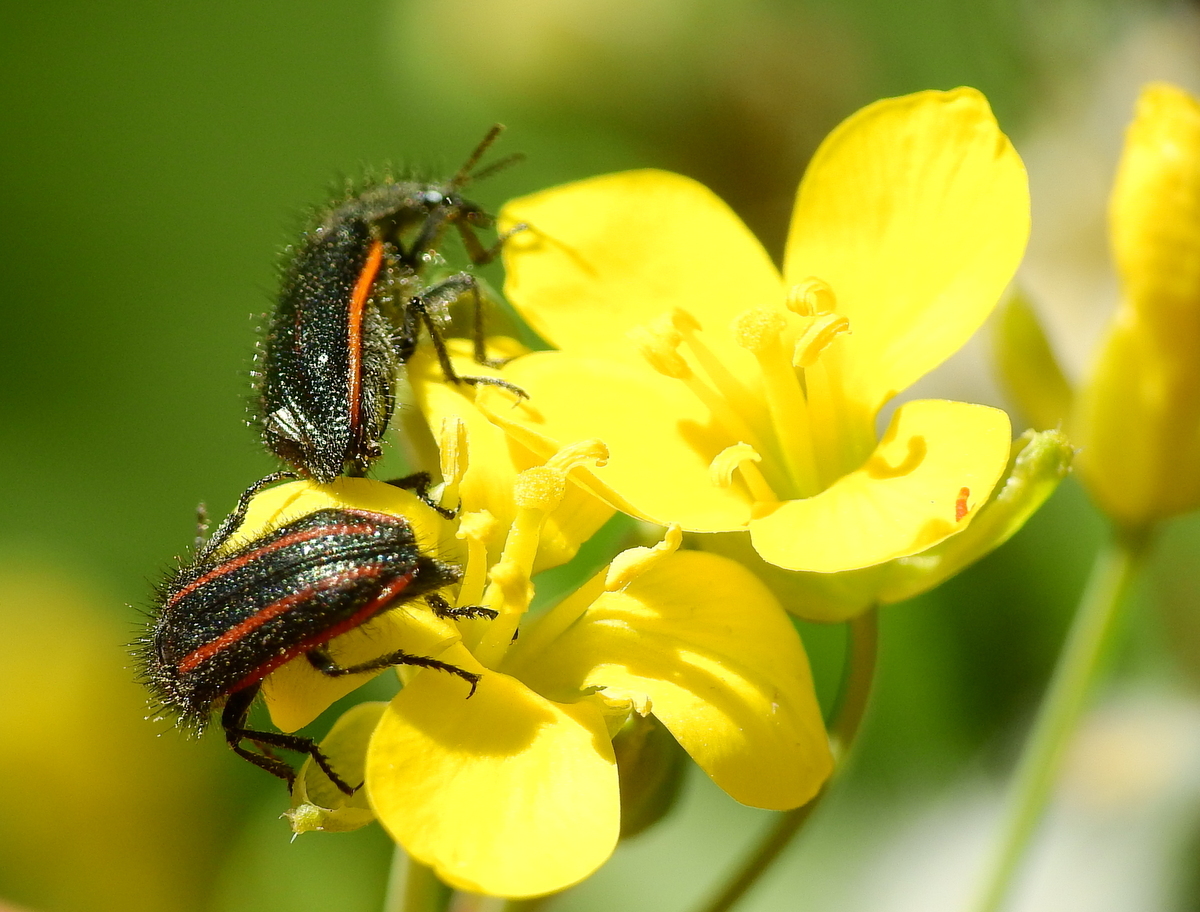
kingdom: Animalia
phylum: Arthropoda
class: Insecta
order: Coleoptera
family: Melyridae
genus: Astylus
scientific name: Astylus
